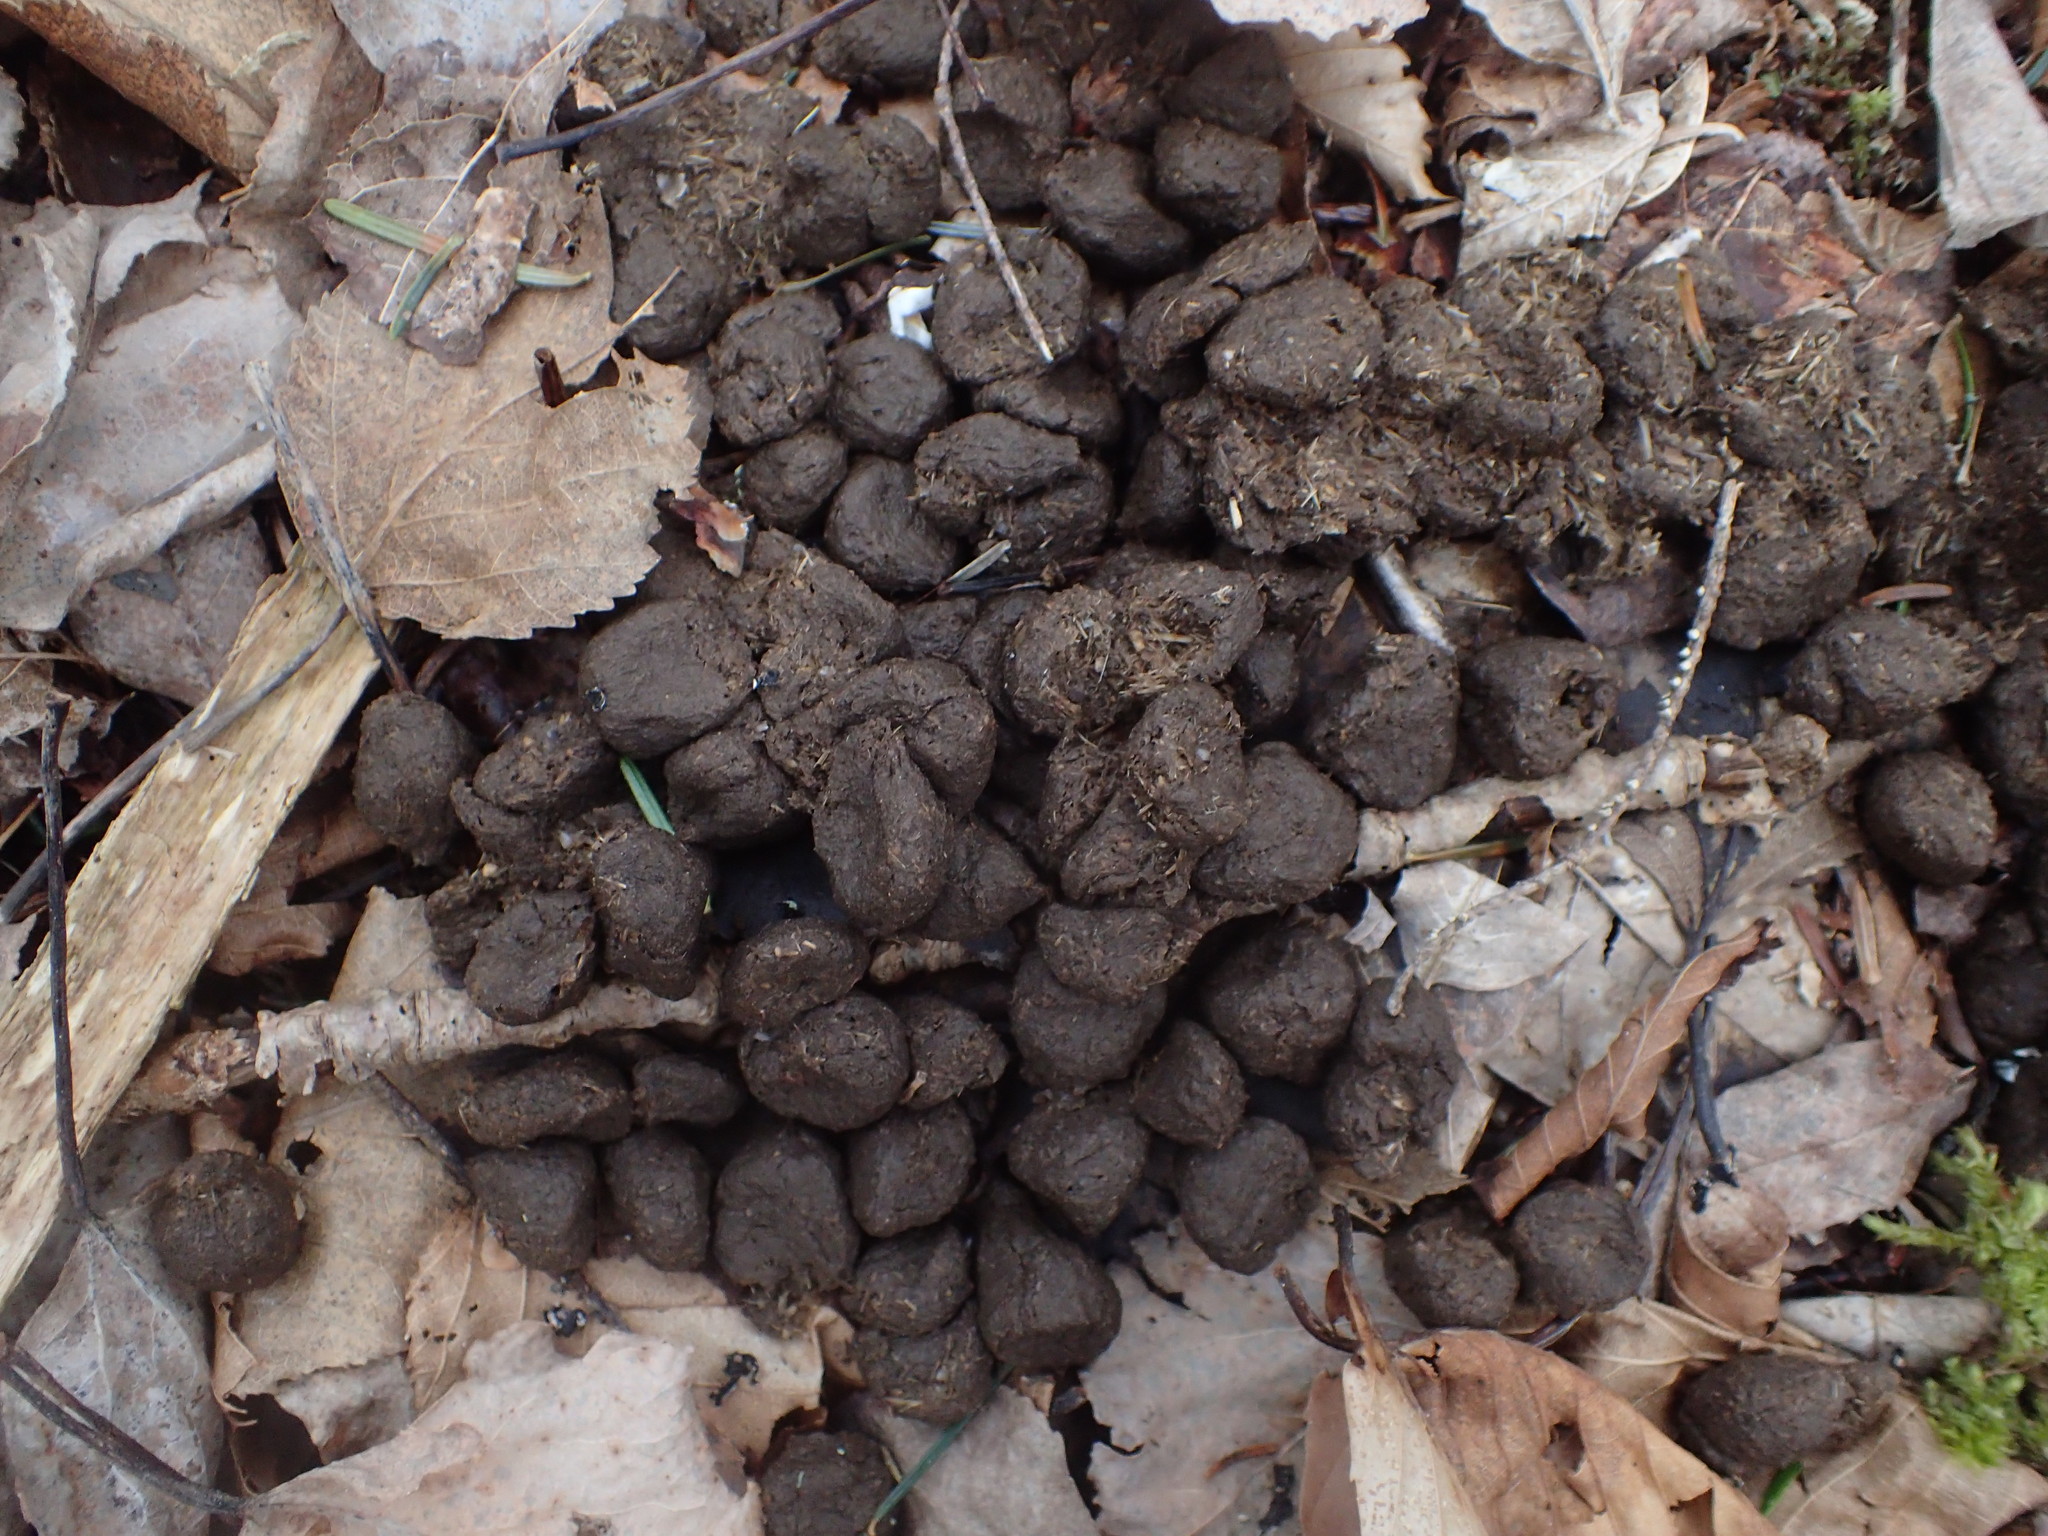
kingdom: Animalia
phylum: Chordata
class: Mammalia
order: Artiodactyla
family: Cervidae
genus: Odocoileus
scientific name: Odocoileus virginianus
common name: White-tailed deer
